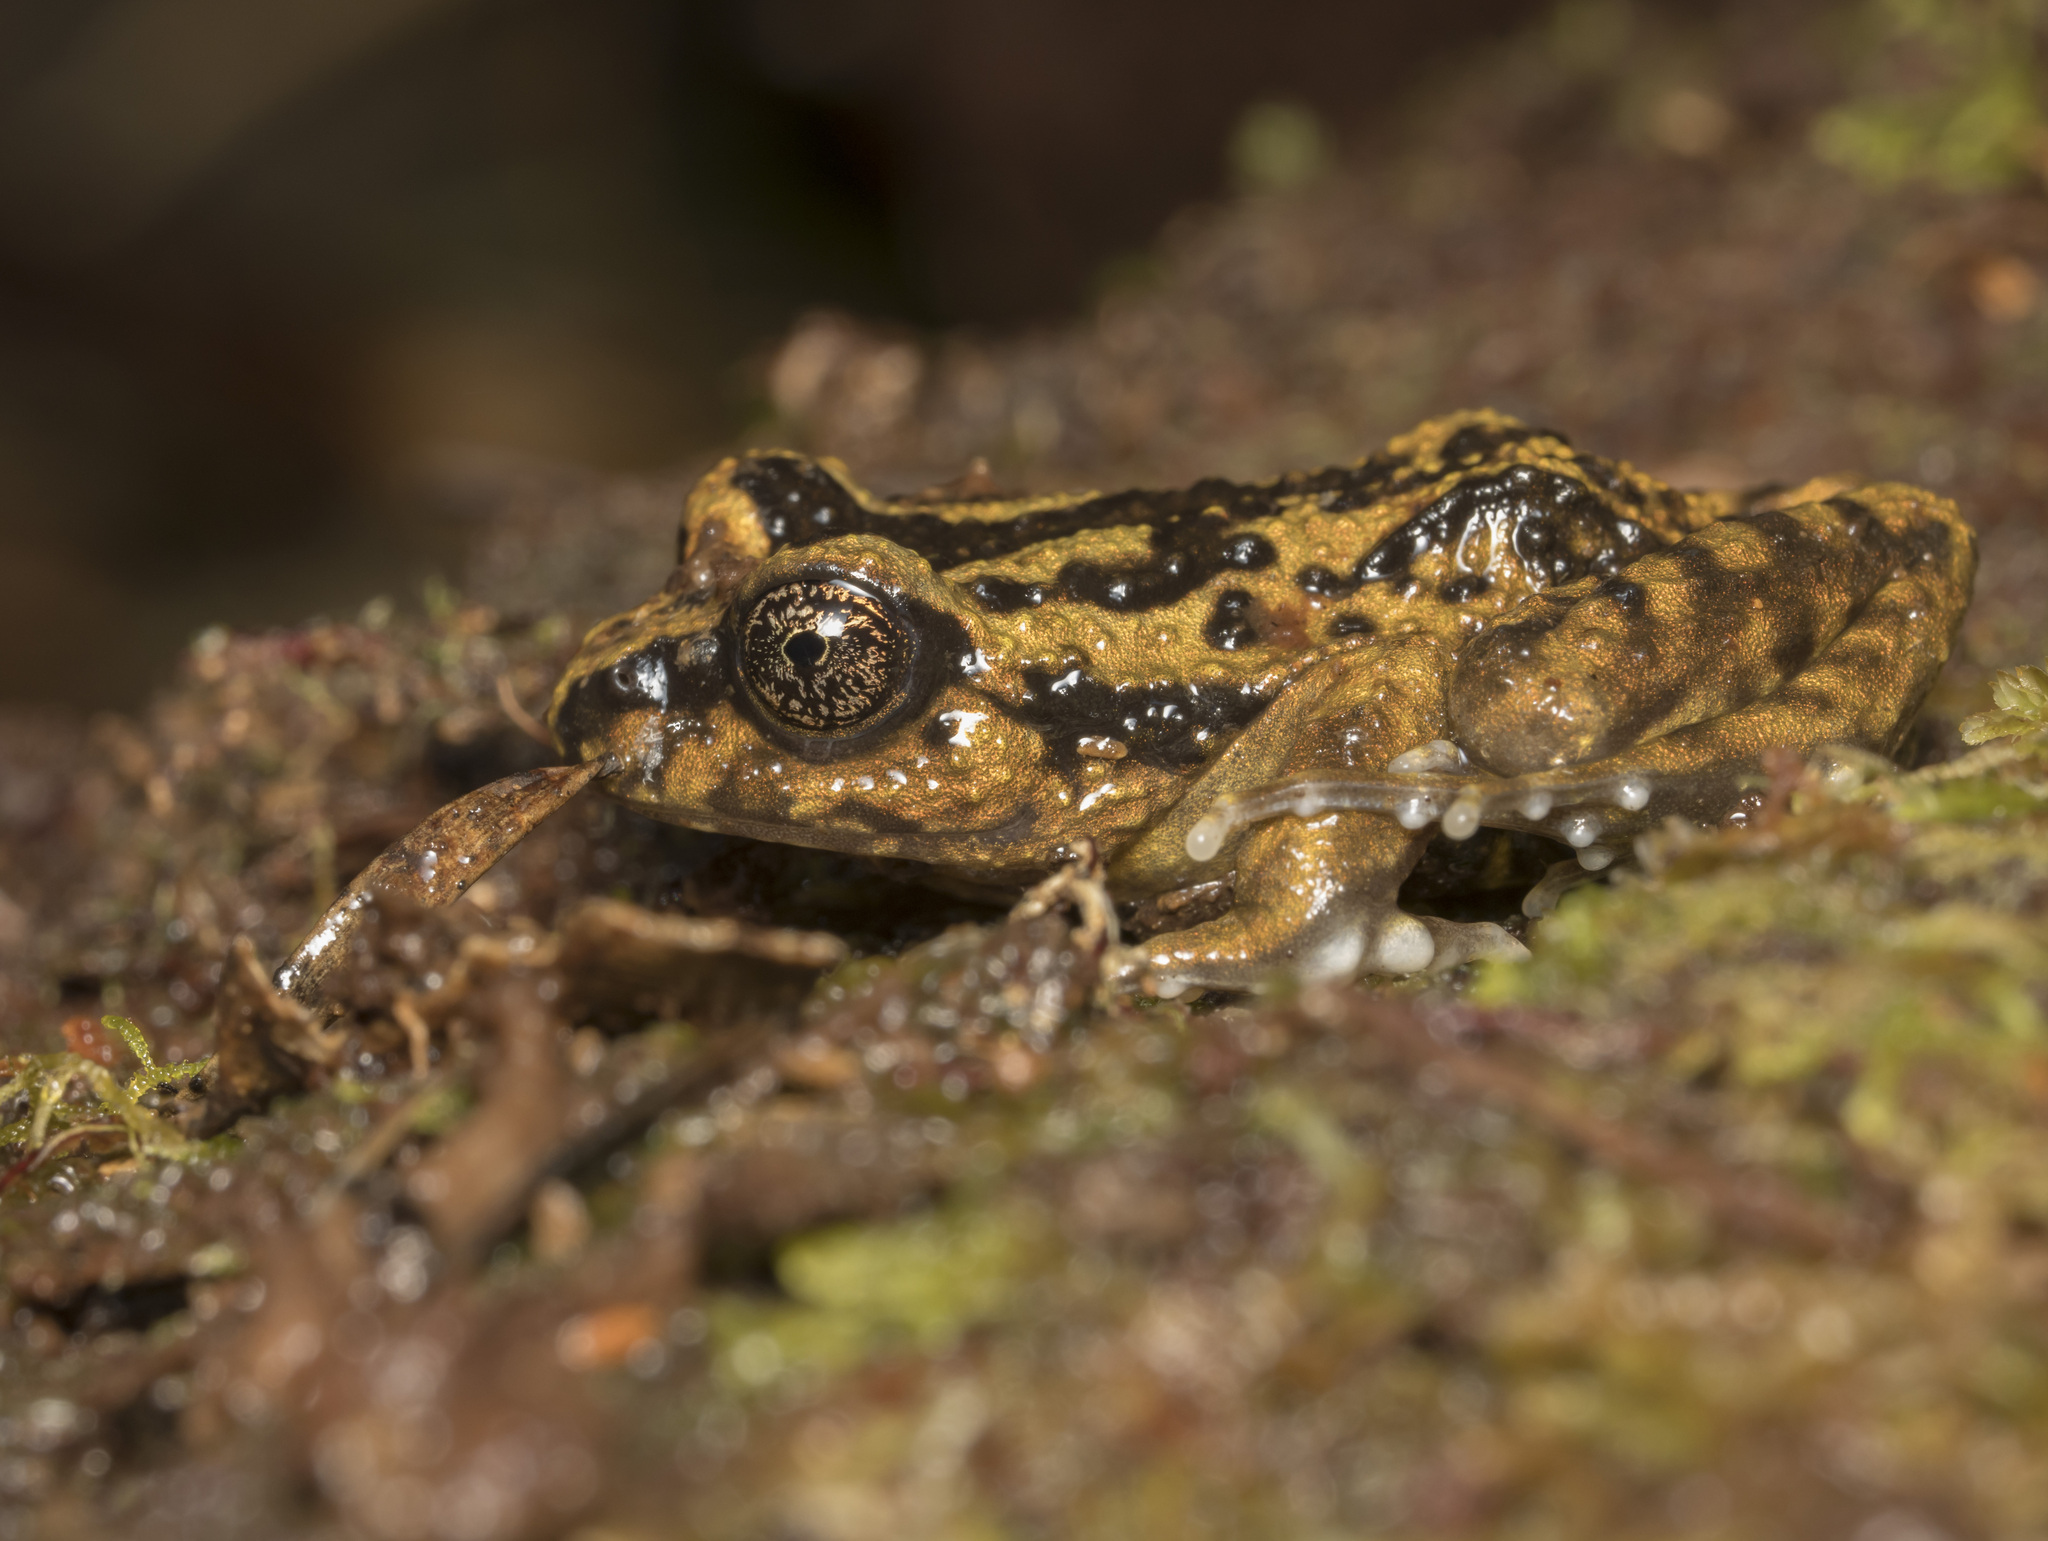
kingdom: Animalia
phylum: Chordata
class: Amphibia
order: Anura
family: Alsodidae
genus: Alsodes
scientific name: Alsodes norae
